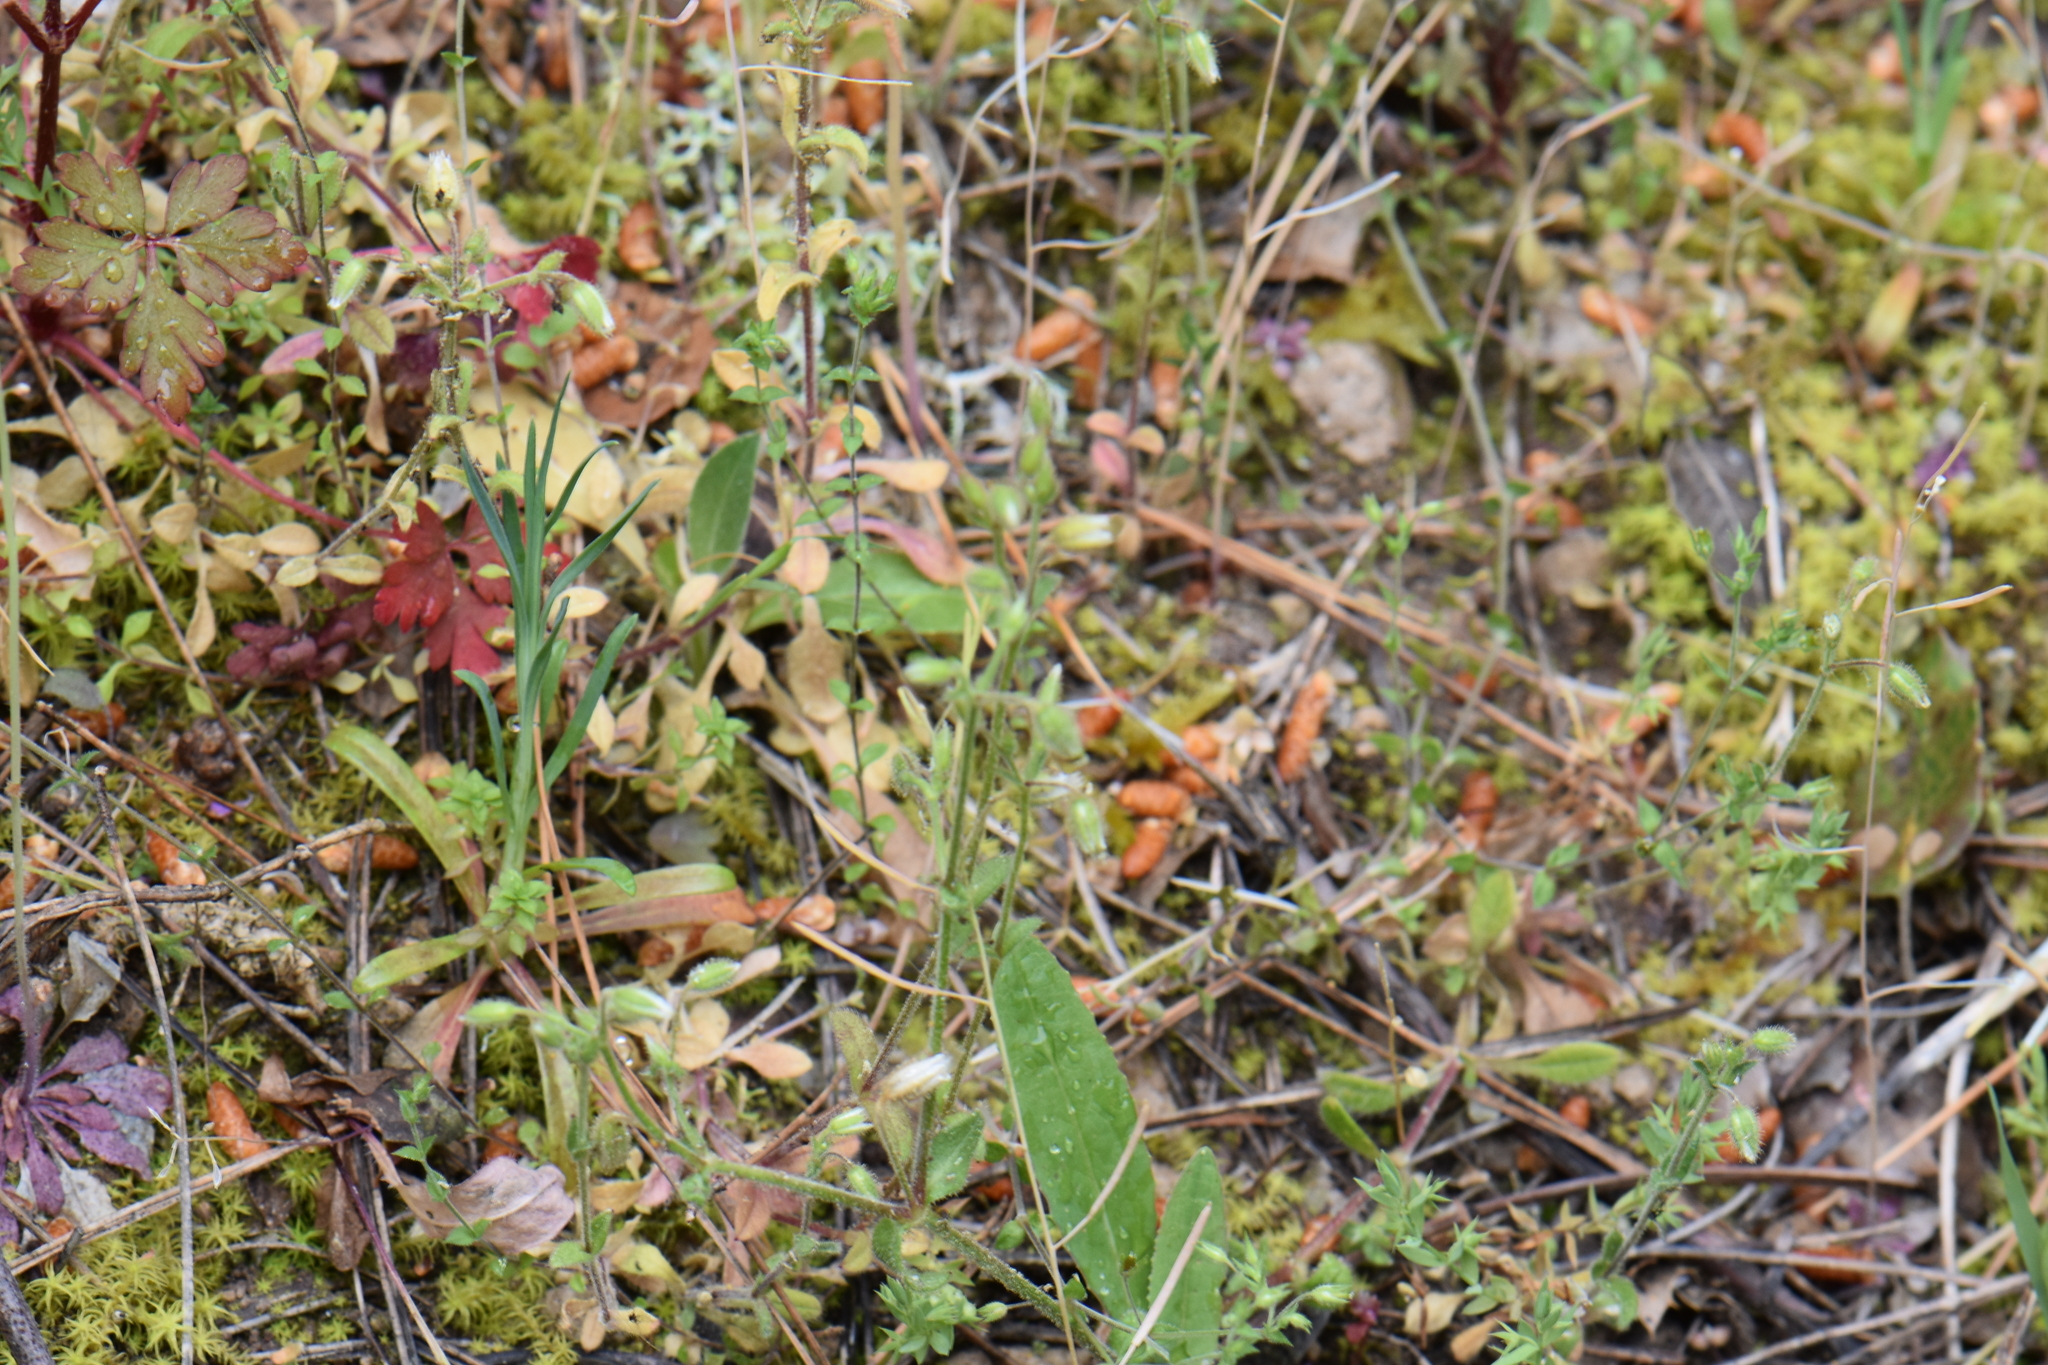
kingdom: Plantae
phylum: Tracheophyta
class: Magnoliopsida
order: Caryophyllales
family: Caryophyllaceae
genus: Cerastium
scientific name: Cerastium pumilum
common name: Dwarf mouse-ear
